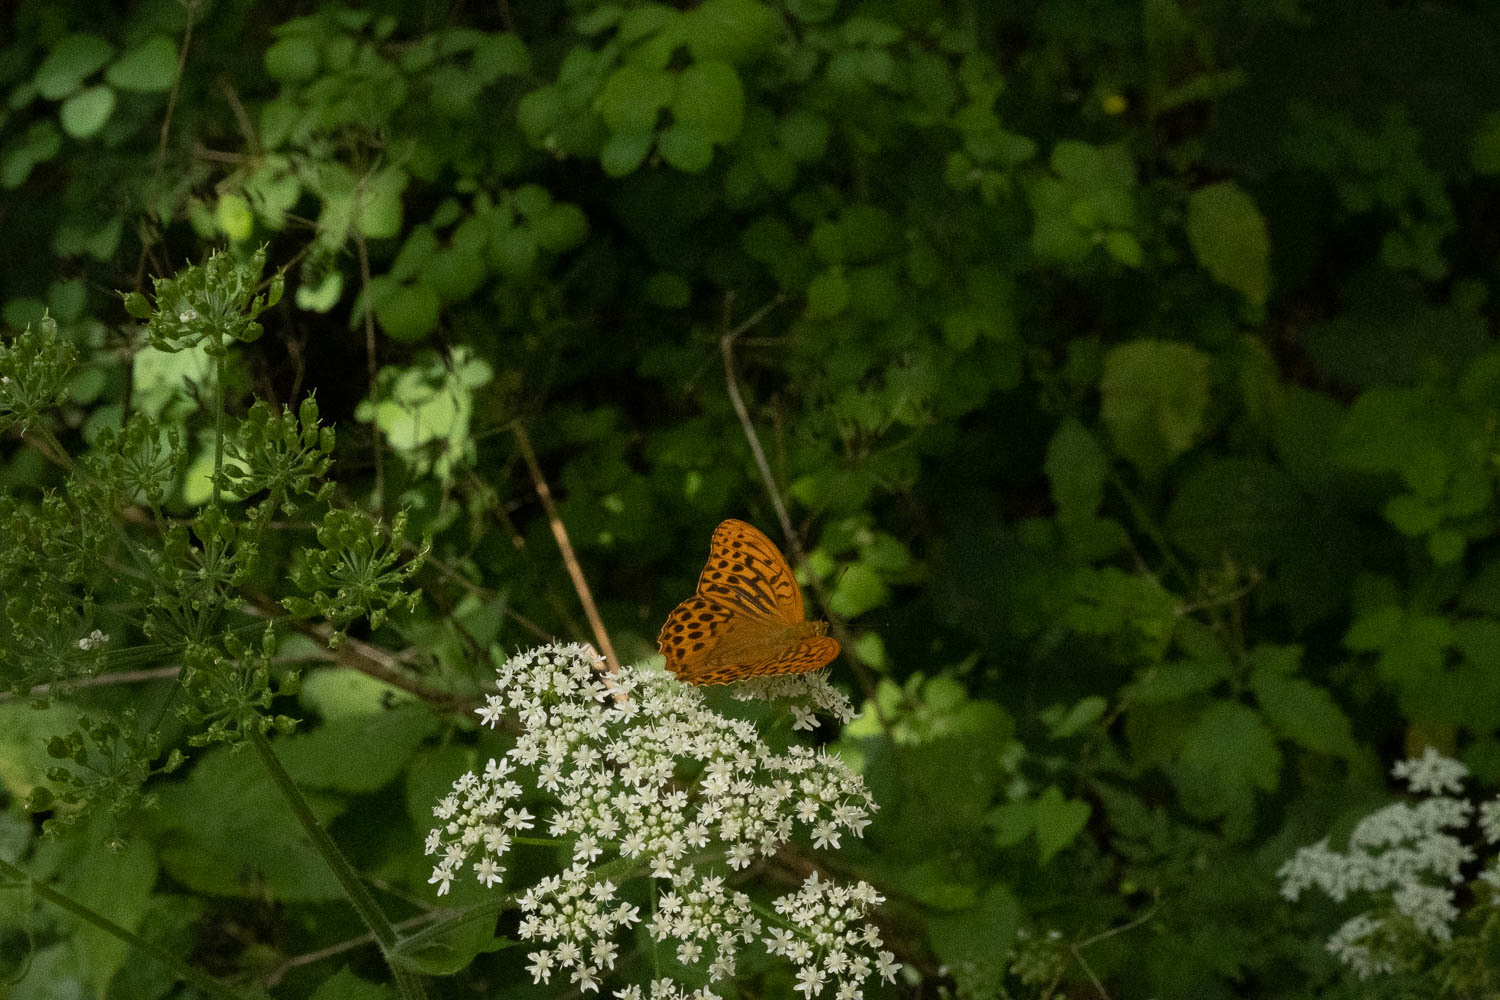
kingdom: Animalia
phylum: Arthropoda
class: Insecta
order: Lepidoptera
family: Nymphalidae
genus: Argynnis
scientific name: Argynnis paphia
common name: Silver-washed fritillary
